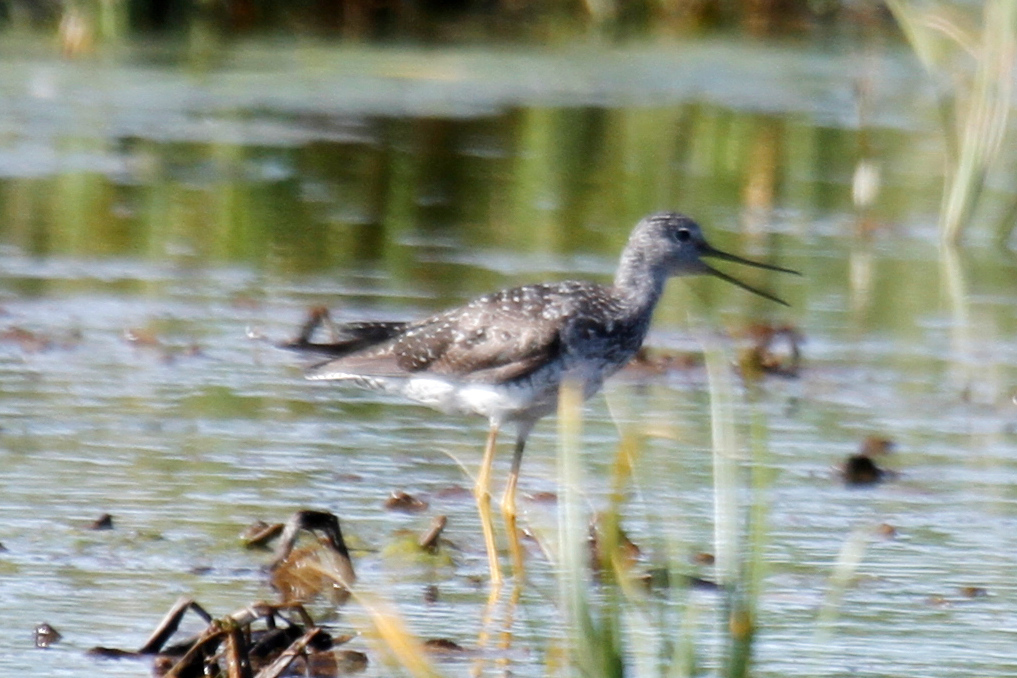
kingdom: Animalia
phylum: Chordata
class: Aves
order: Charadriiformes
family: Scolopacidae
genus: Tringa
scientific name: Tringa melanoleuca
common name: Greater yellowlegs
